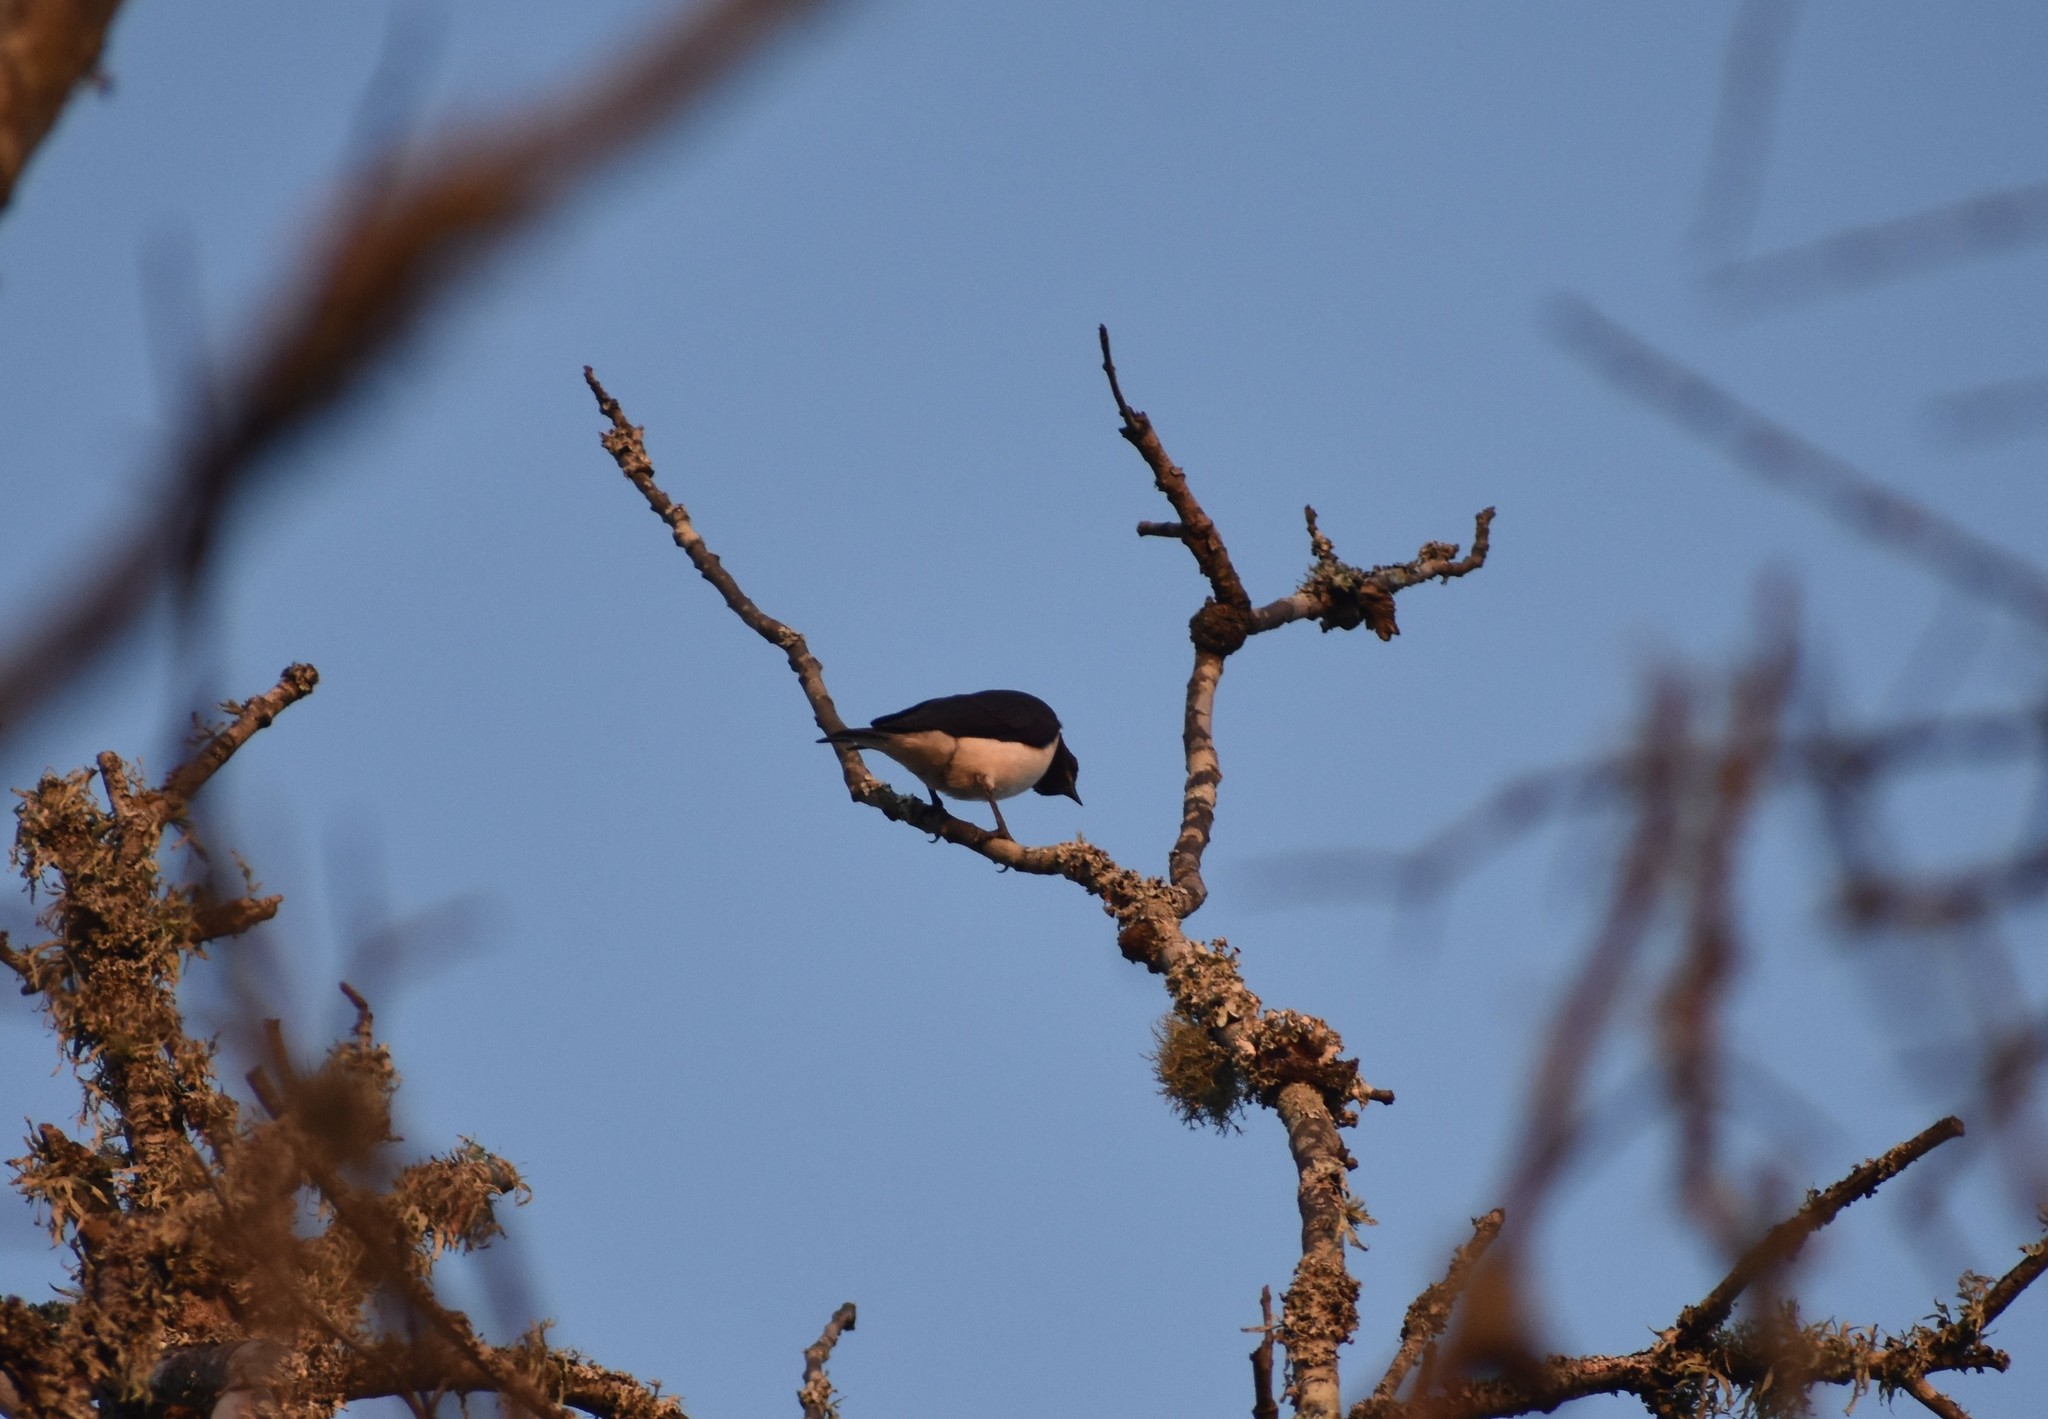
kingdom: Animalia
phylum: Chordata
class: Aves
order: Passeriformes
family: Sturnidae
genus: Cinnyricinclus
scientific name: Cinnyricinclus leucogaster
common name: Violet-backed starling
